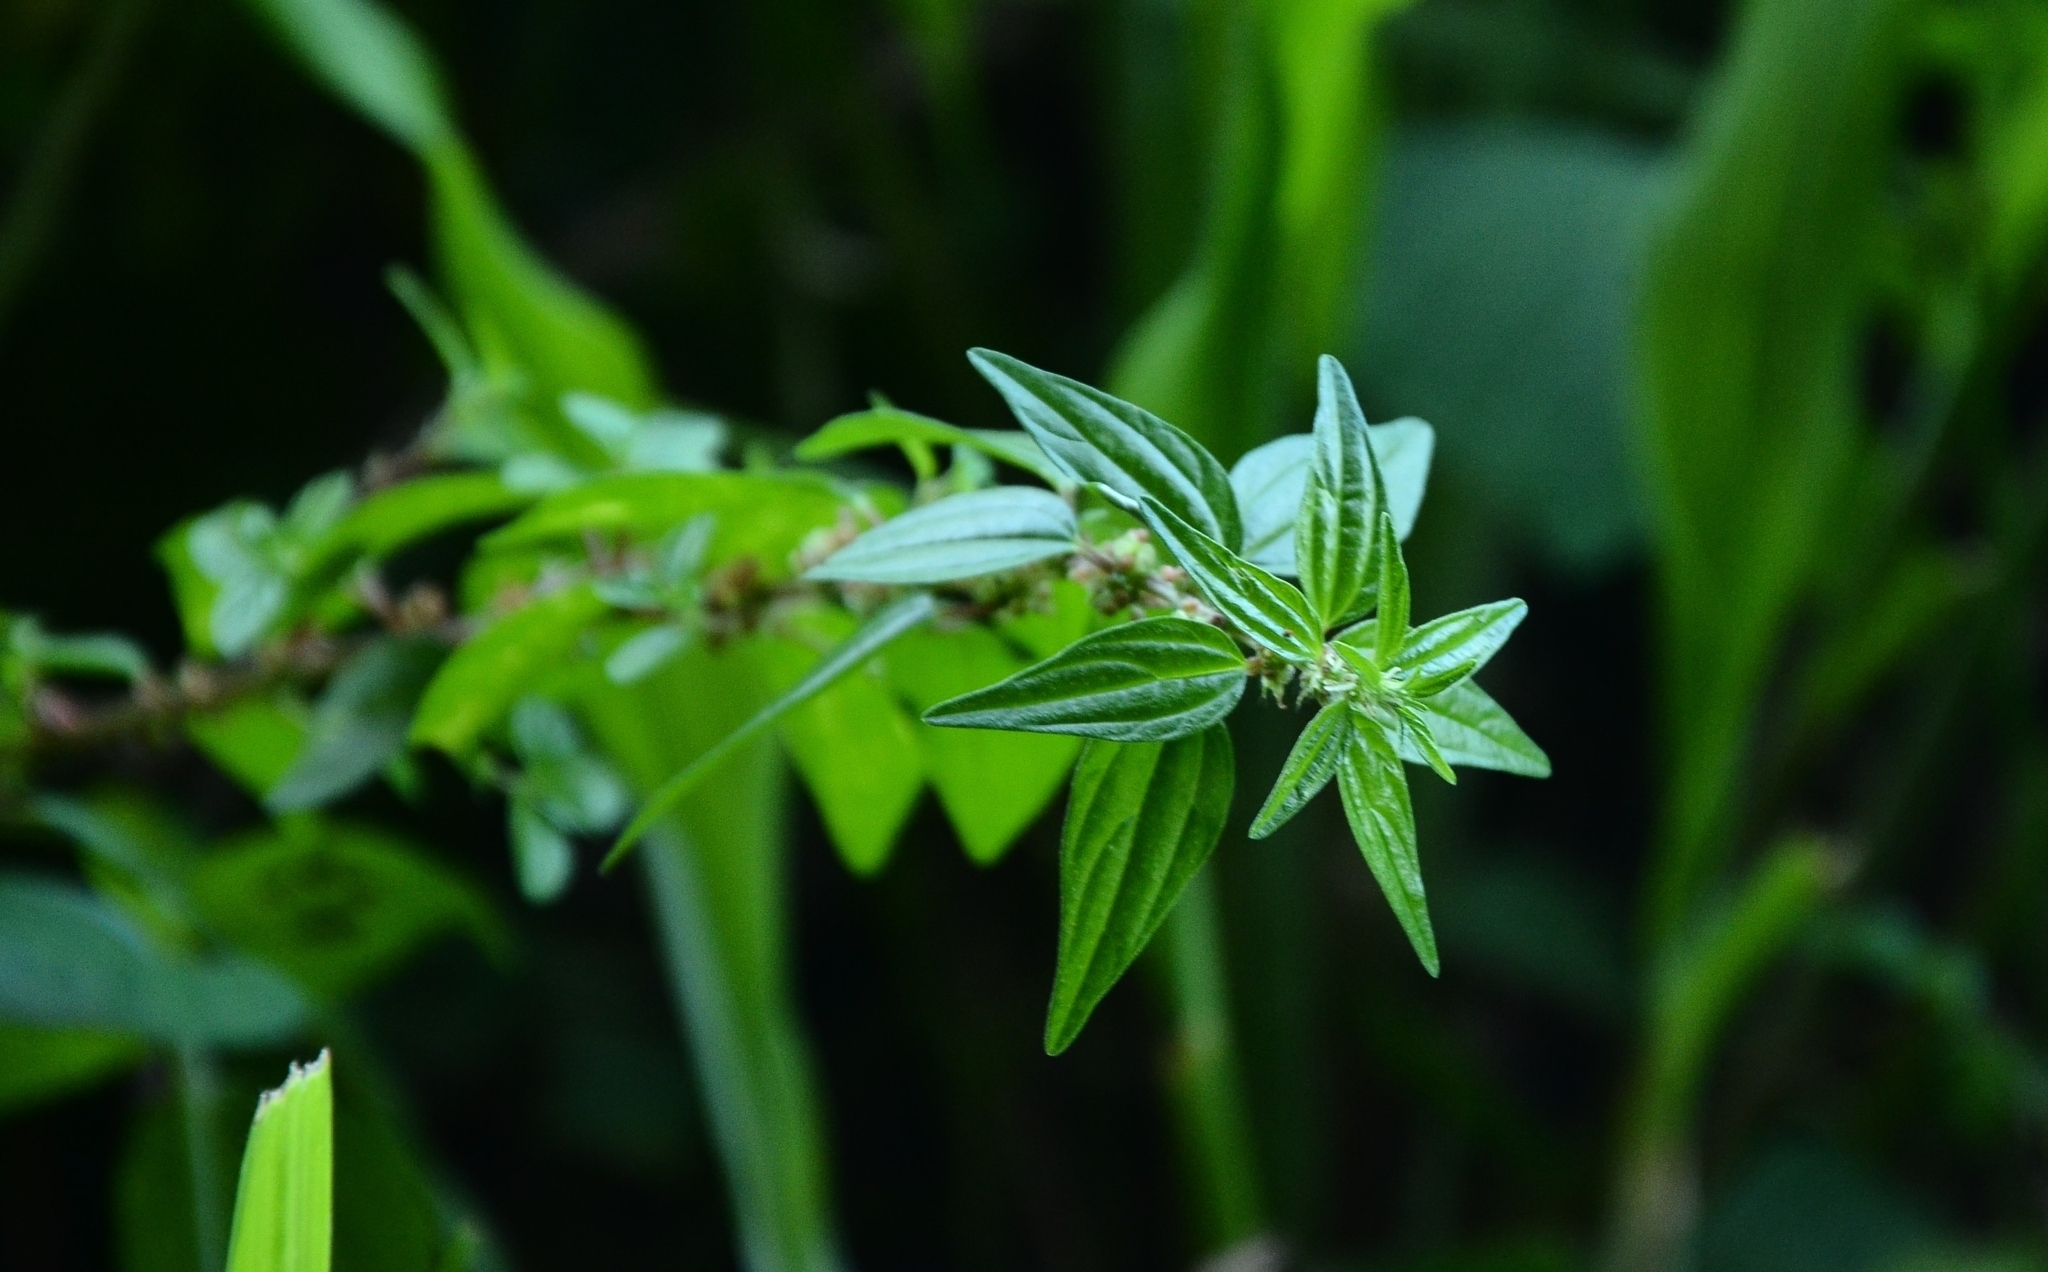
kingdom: Plantae
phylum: Tracheophyta
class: Magnoliopsida
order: Rosales
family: Urticaceae
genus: Pouzolzia
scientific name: Pouzolzia zeylanica
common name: Graceful pouzolzsbush
